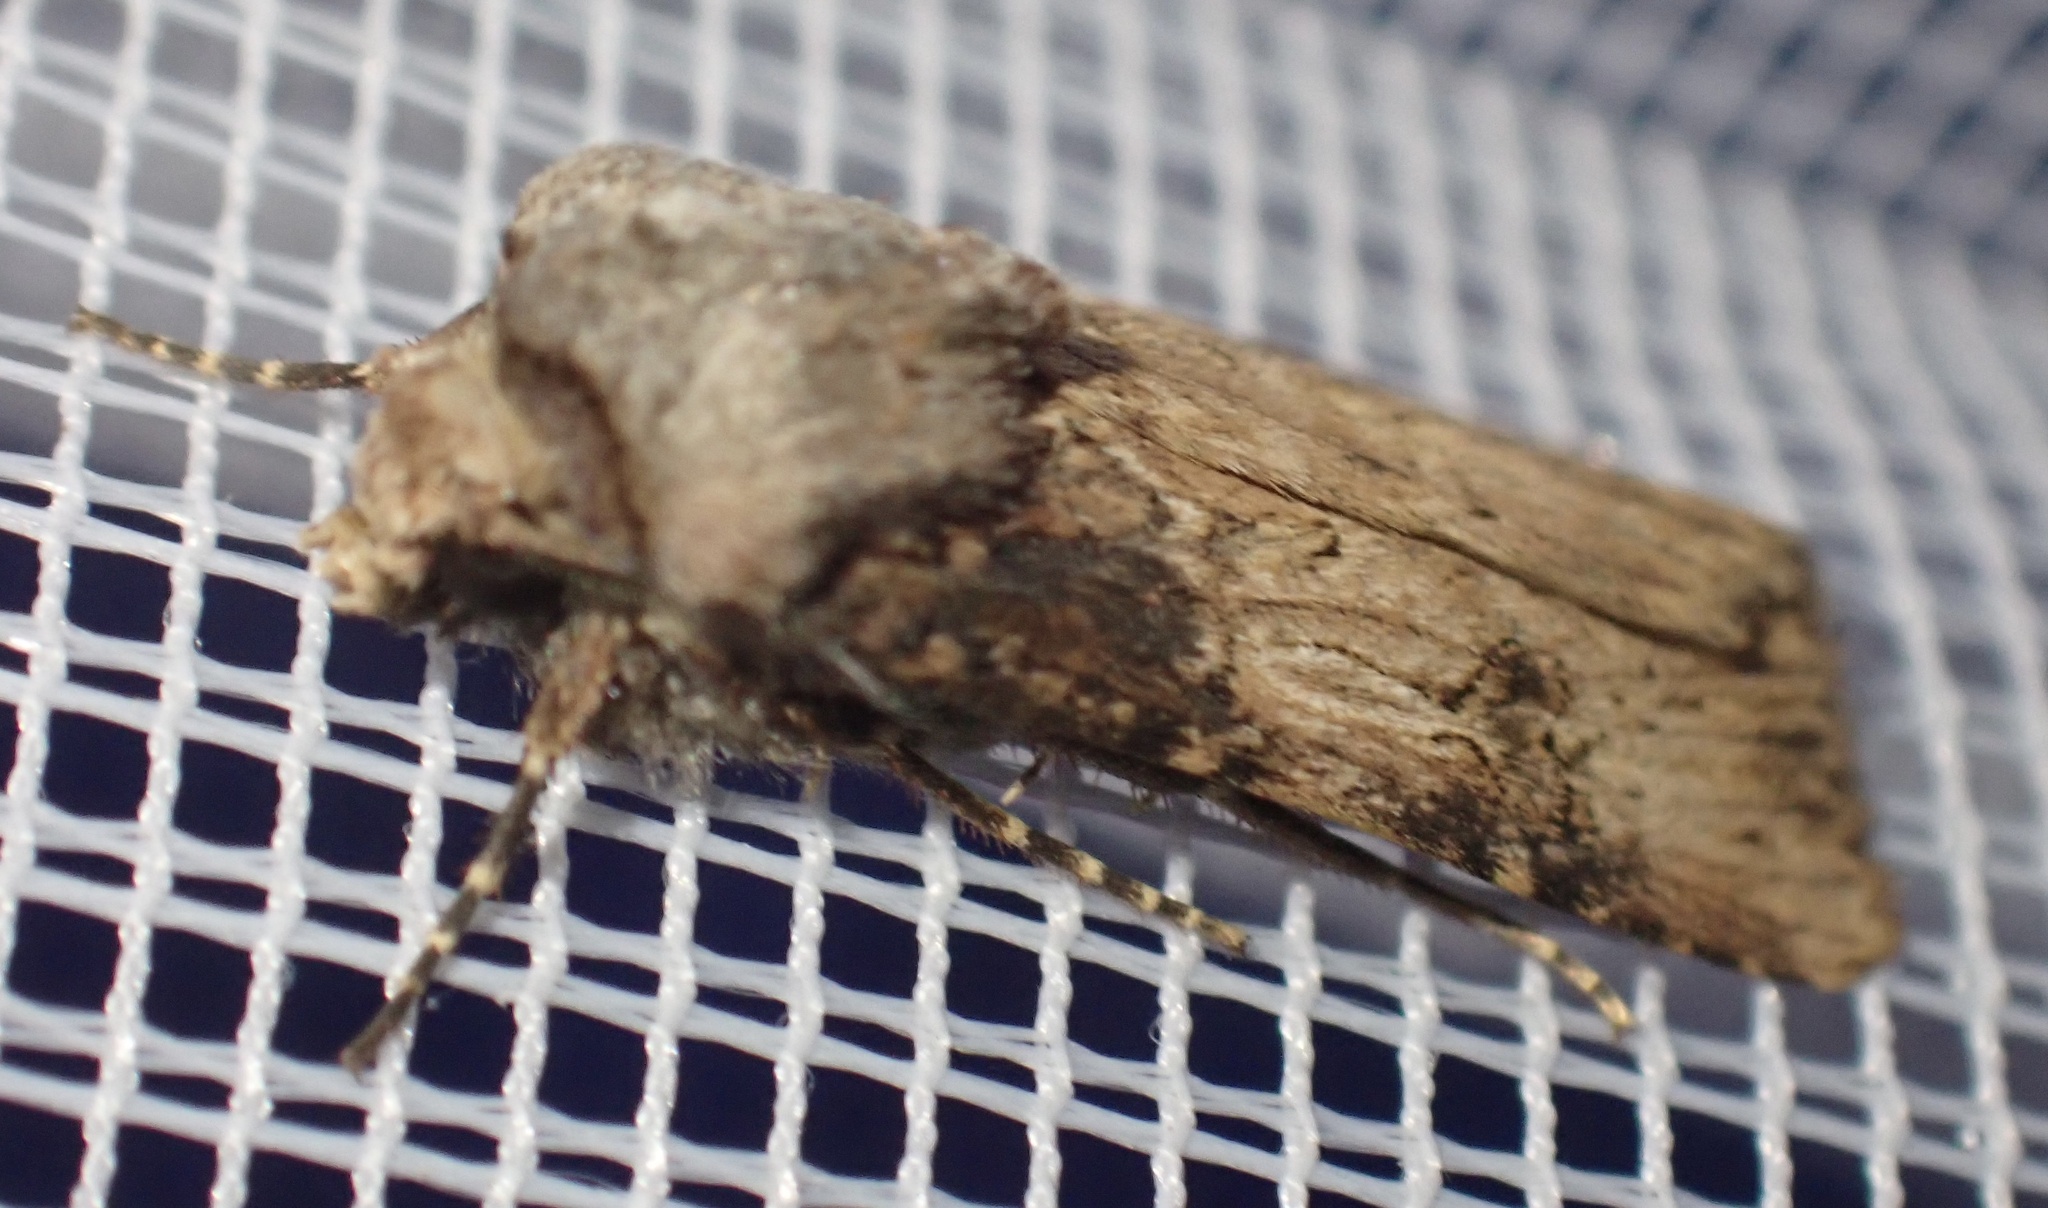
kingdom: Animalia
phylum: Arthropoda
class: Insecta
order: Lepidoptera
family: Noctuidae
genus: Agrotis
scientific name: Agrotis puta
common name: Shuttle-shaped dart
